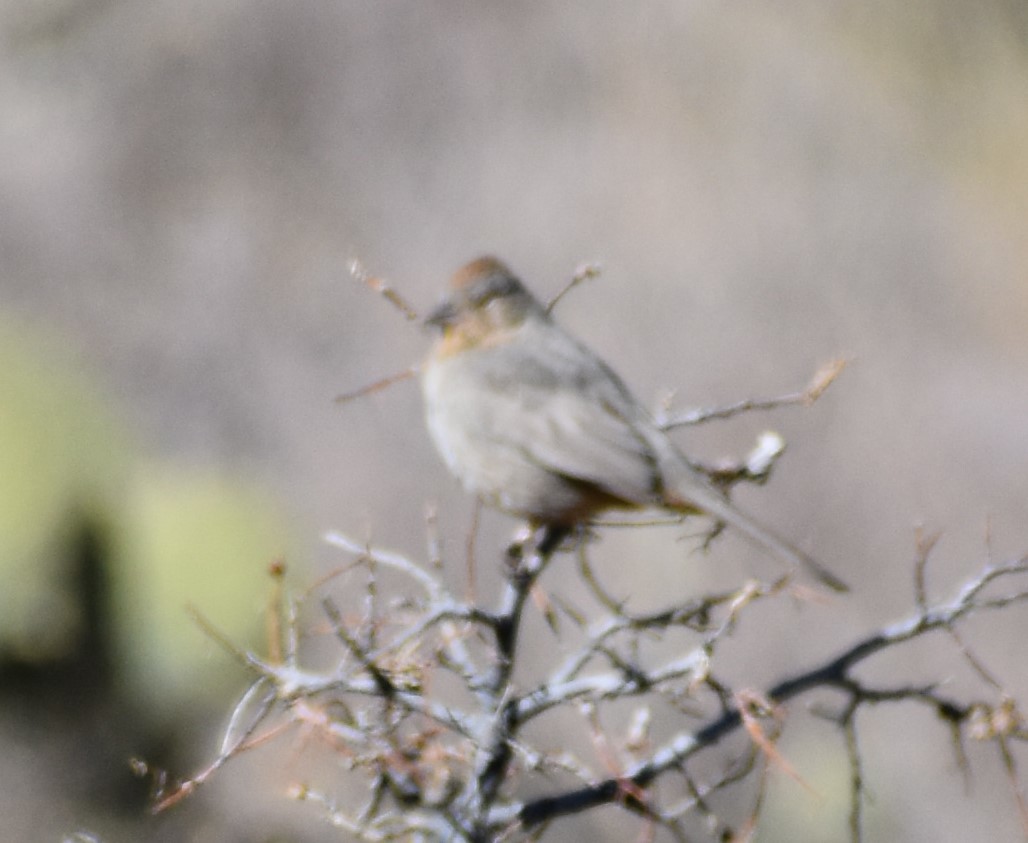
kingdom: Animalia
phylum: Chordata
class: Aves
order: Passeriformes
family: Passerellidae
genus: Melozone
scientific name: Melozone fusca
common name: Canyon towhee
